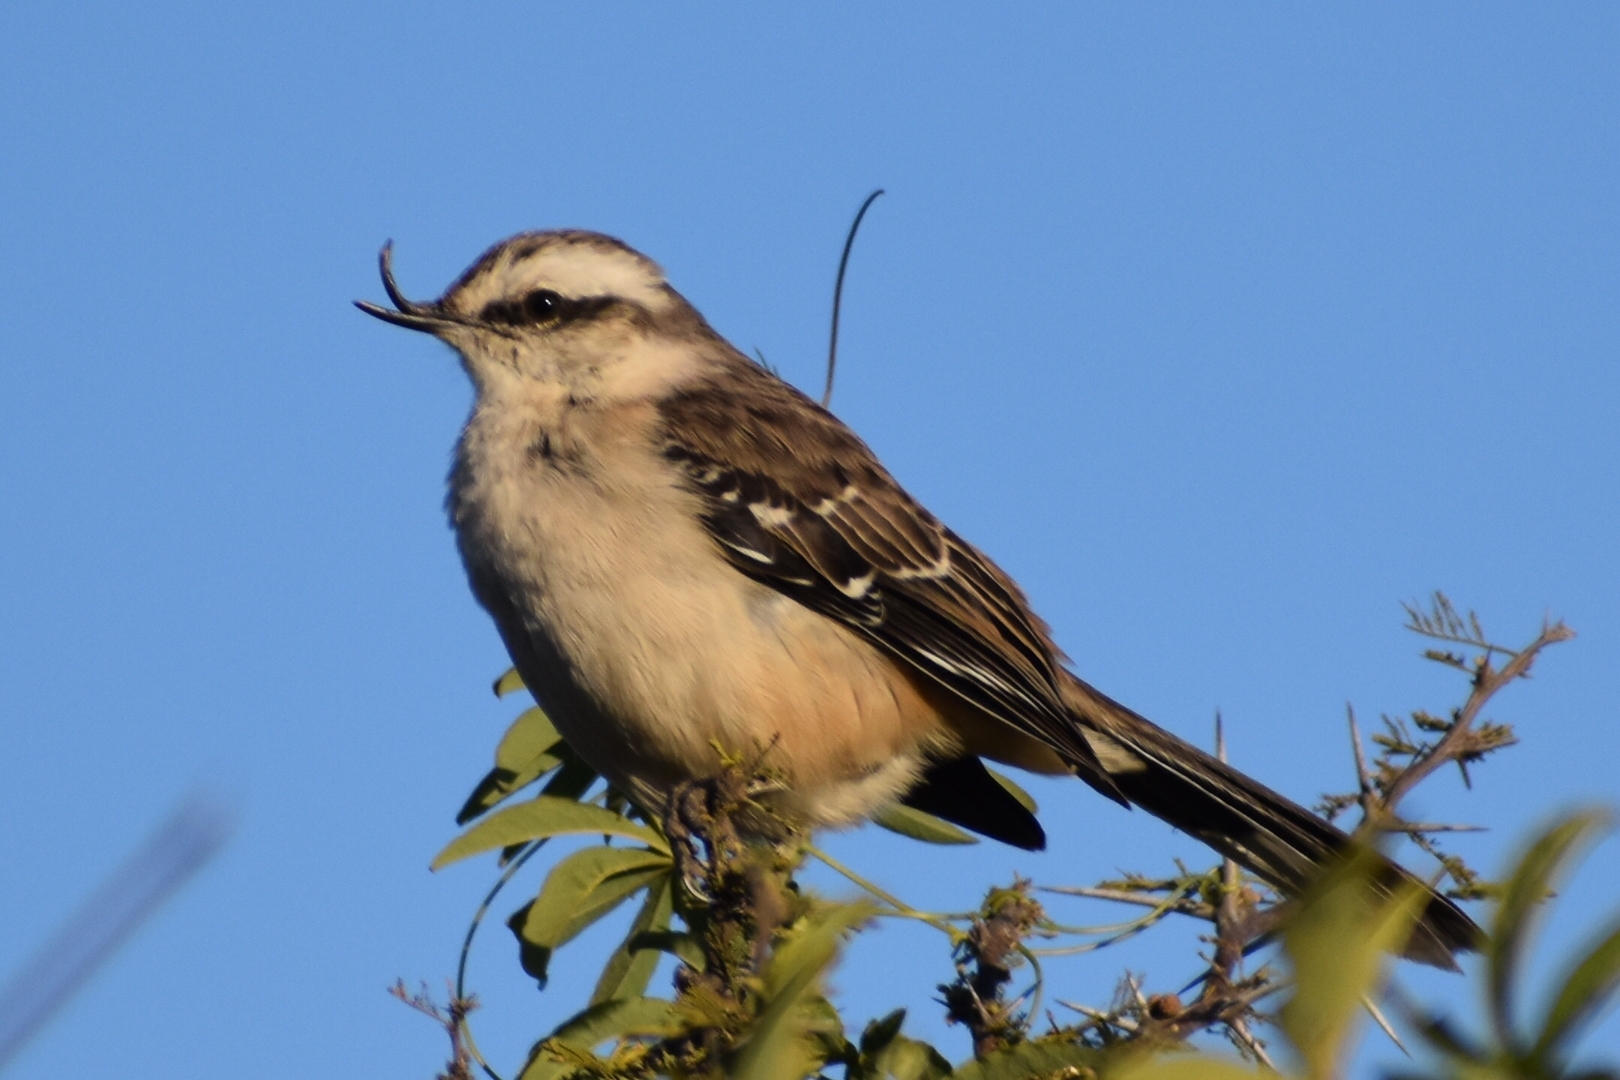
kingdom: Animalia
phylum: Chordata
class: Aves
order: Passeriformes
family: Mimidae
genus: Mimus
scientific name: Mimus saturninus
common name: Chalk-browed mockingbird
